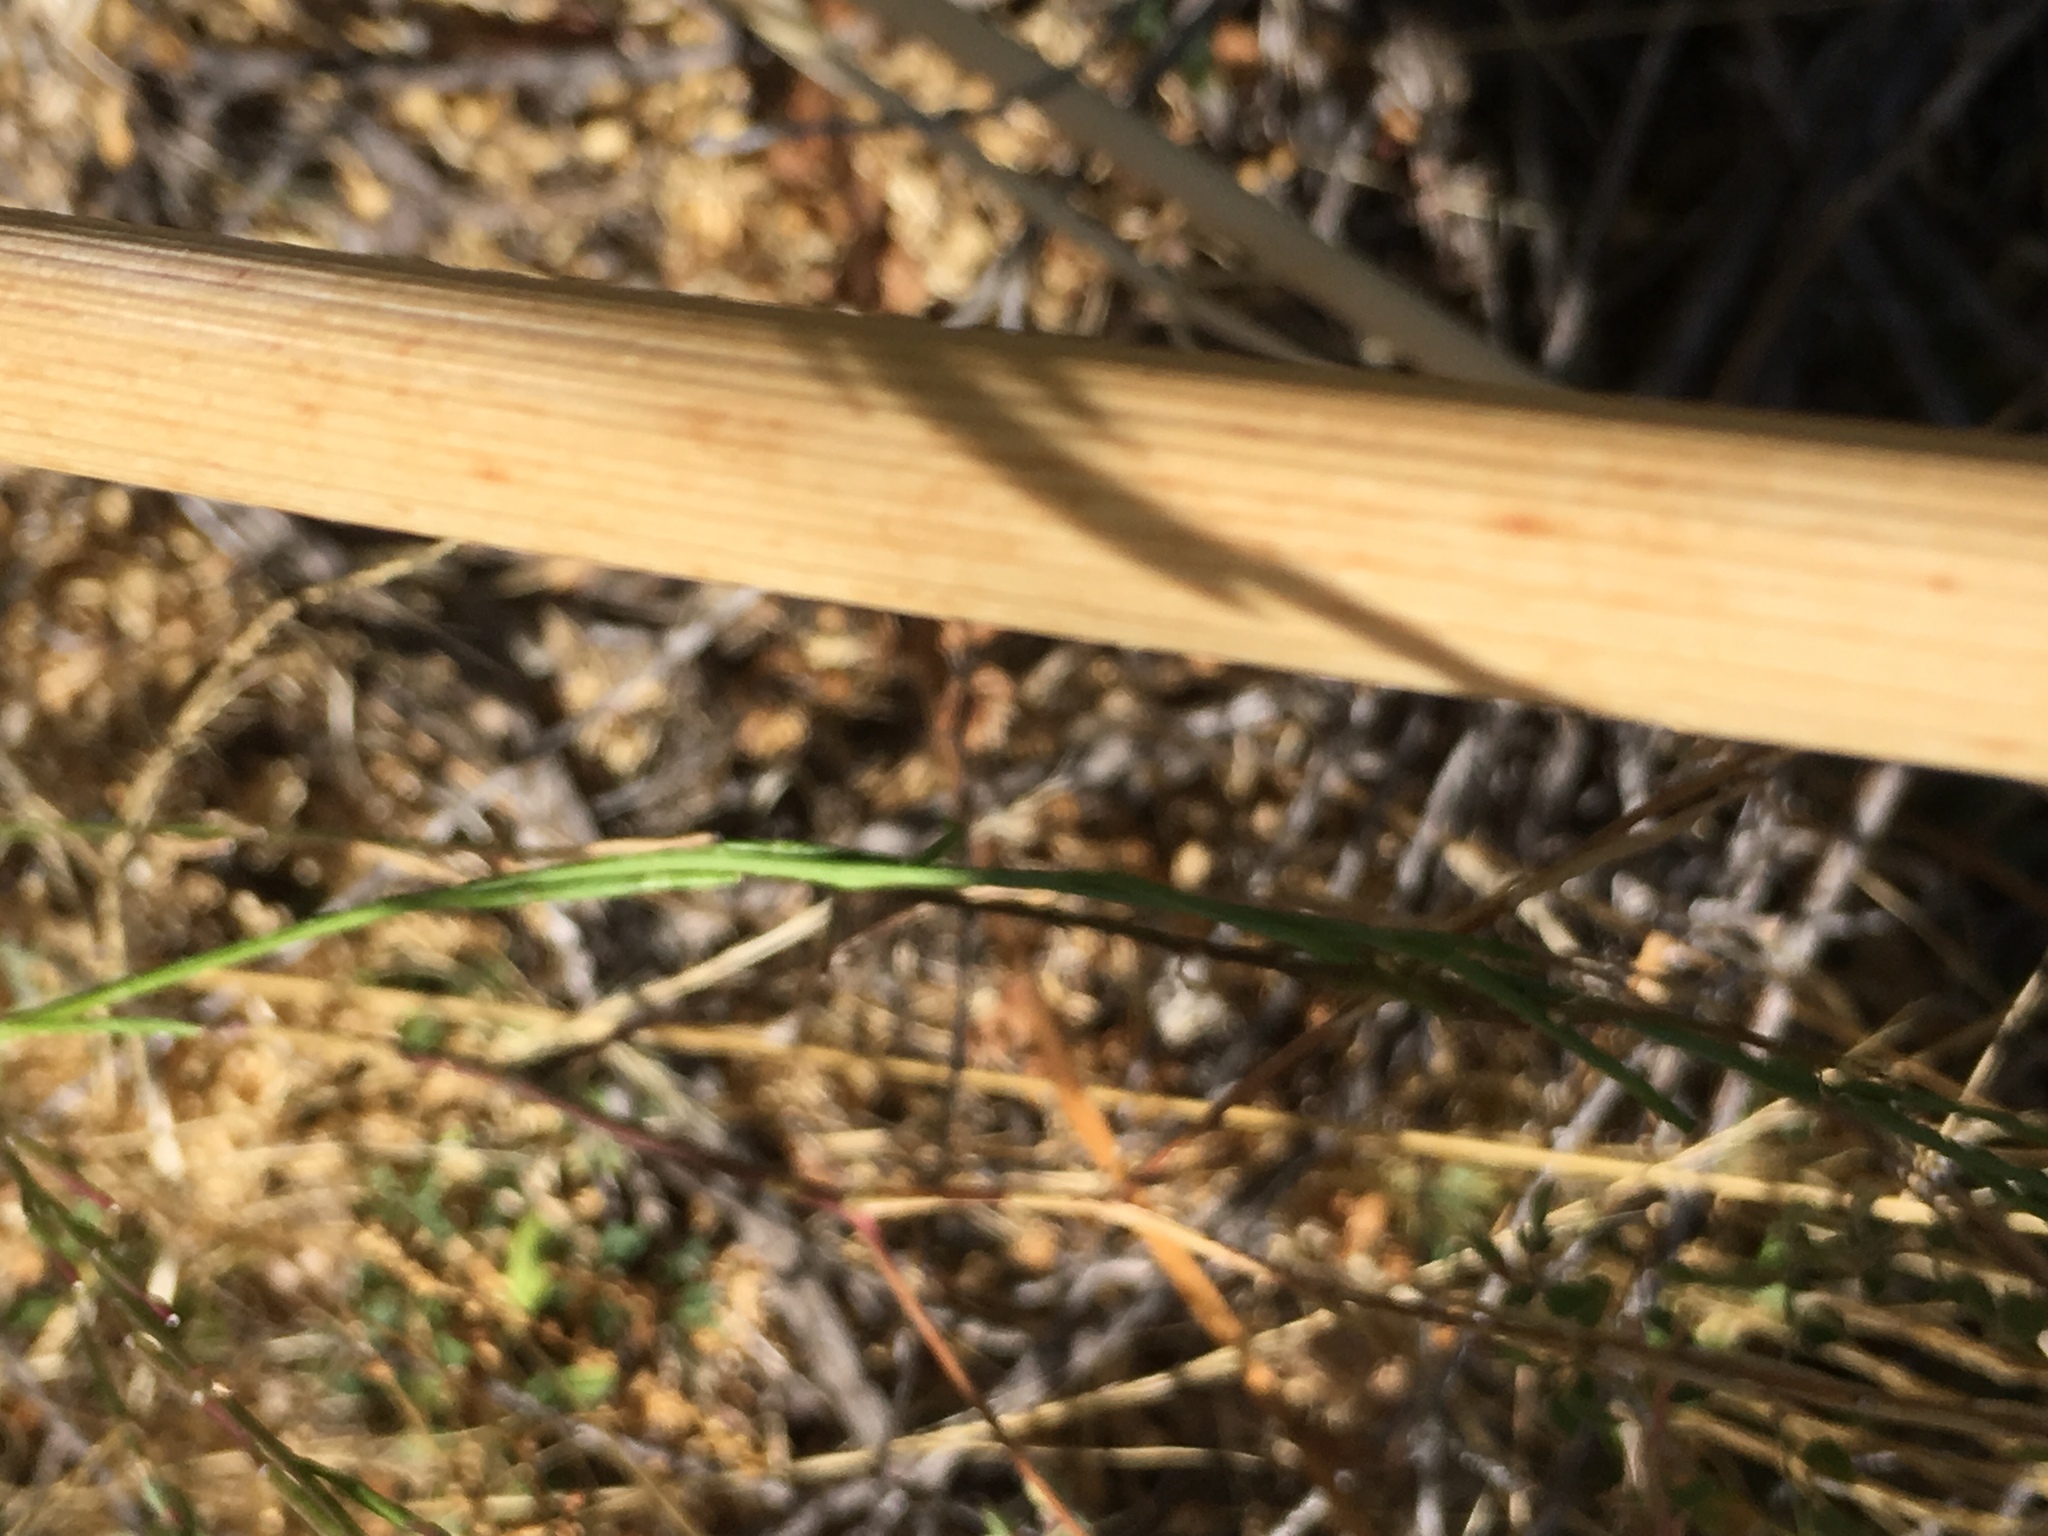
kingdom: Plantae
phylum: Tracheophyta
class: Magnoliopsida
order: Apiales
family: Apiaceae
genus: Conium
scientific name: Conium maculatum
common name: Hemlock
